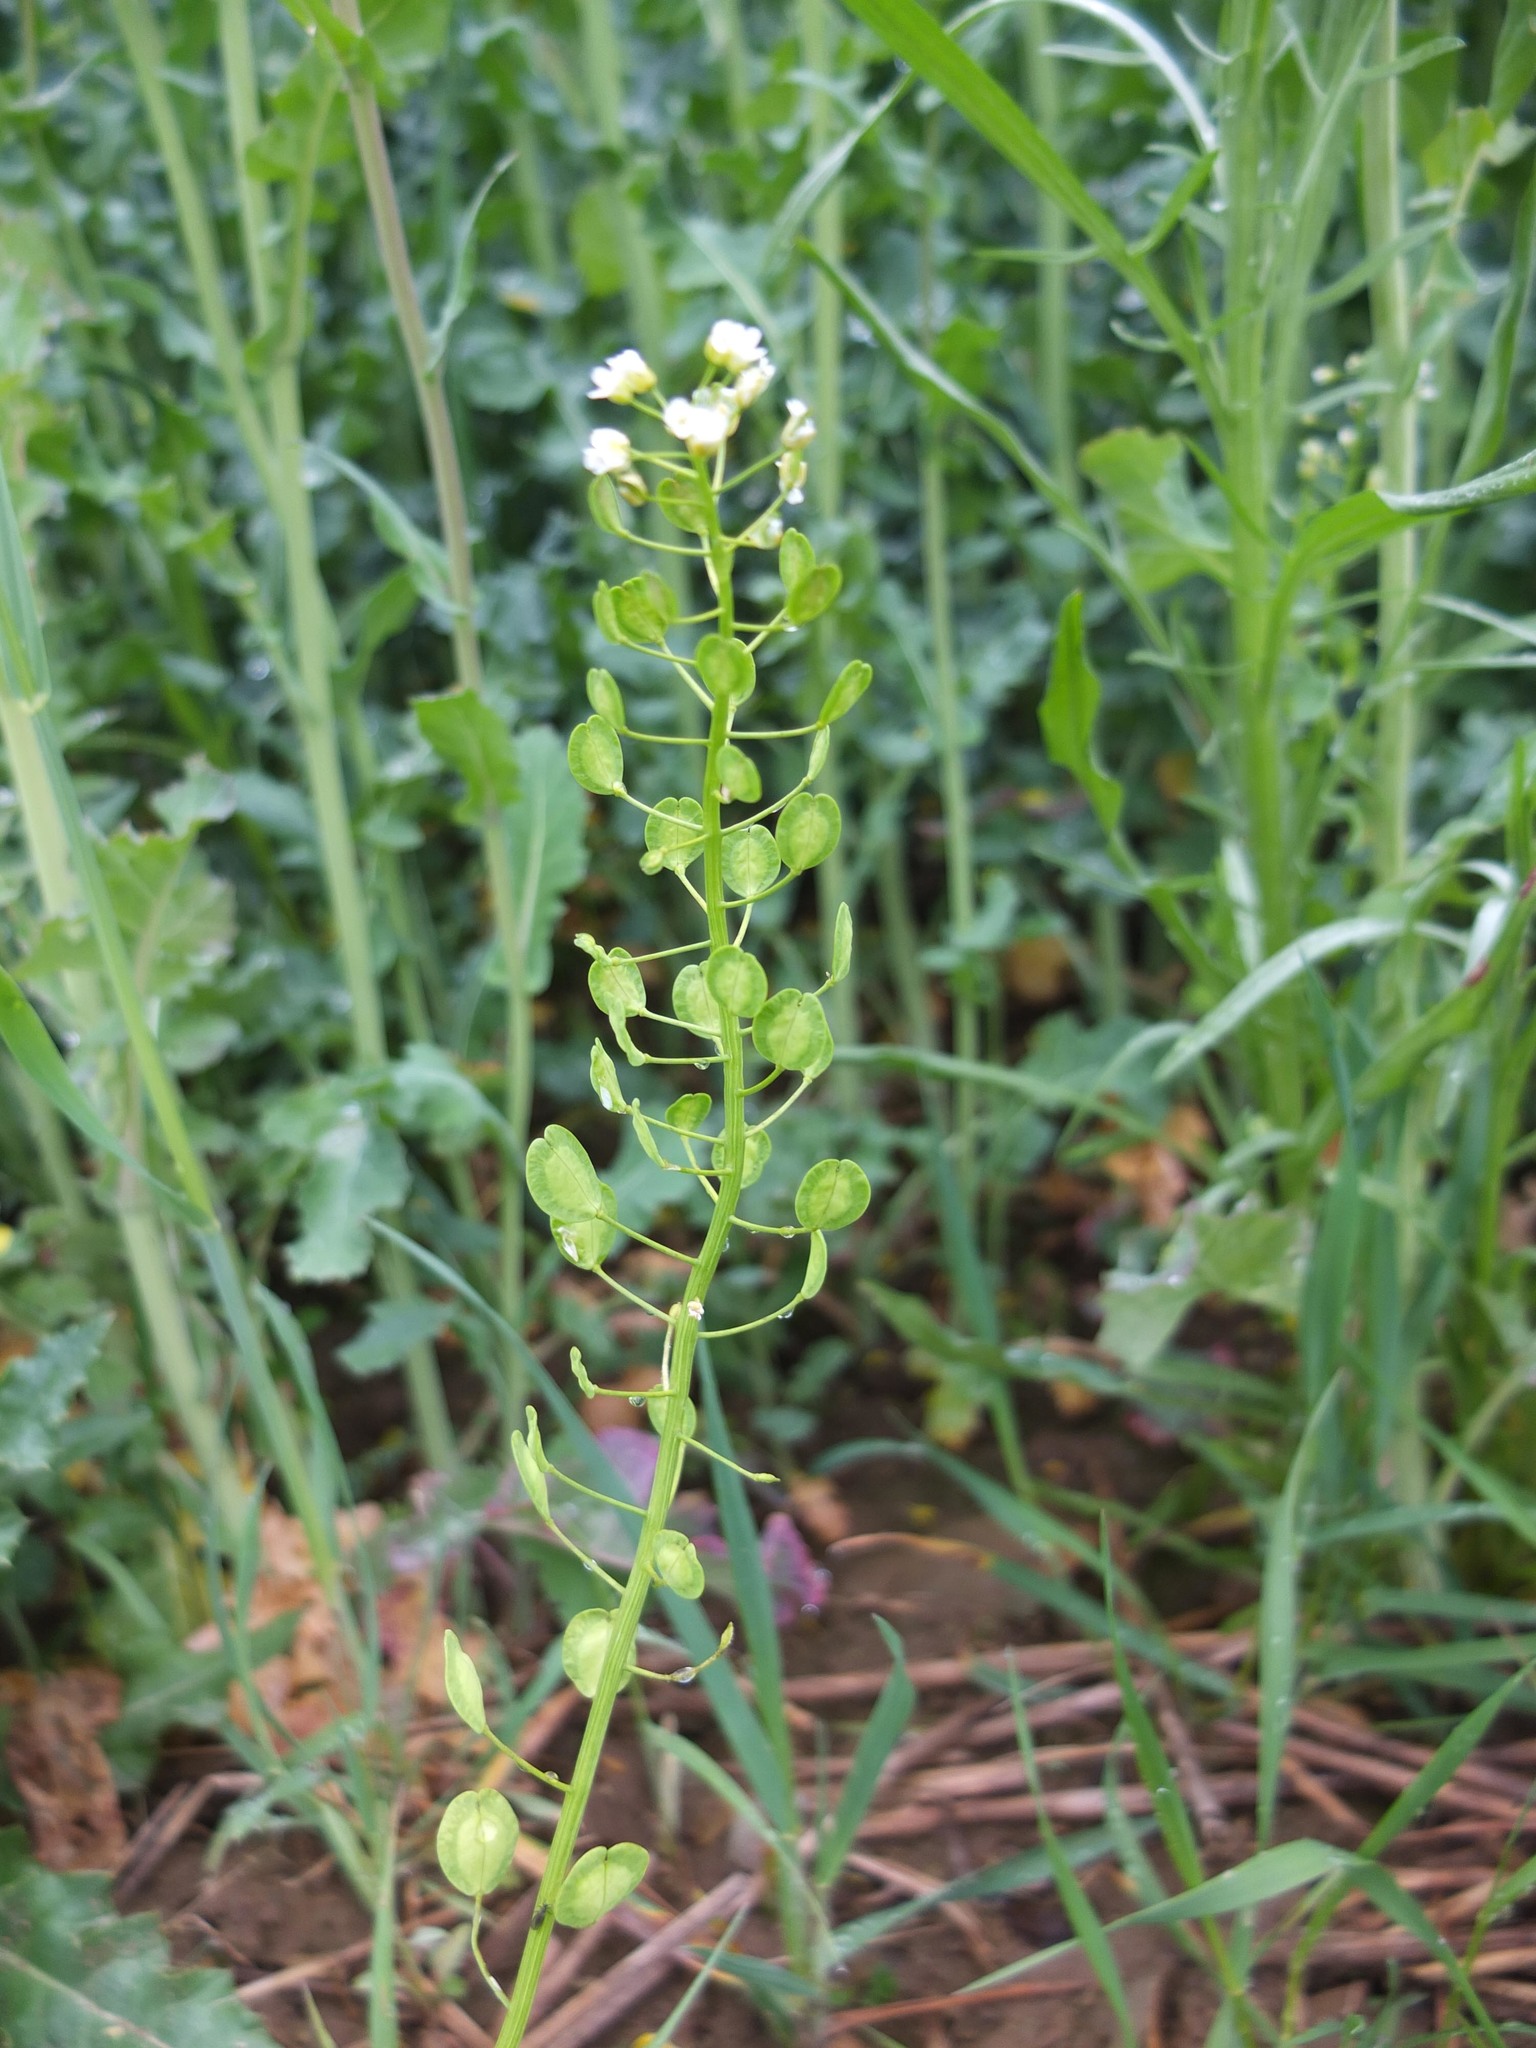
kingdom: Plantae
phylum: Tracheophyta
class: Magnoliopsida
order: Brassicales
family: Brassicaceae
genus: Thlaspi
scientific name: Thlaspi arvense
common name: Field pennycress
